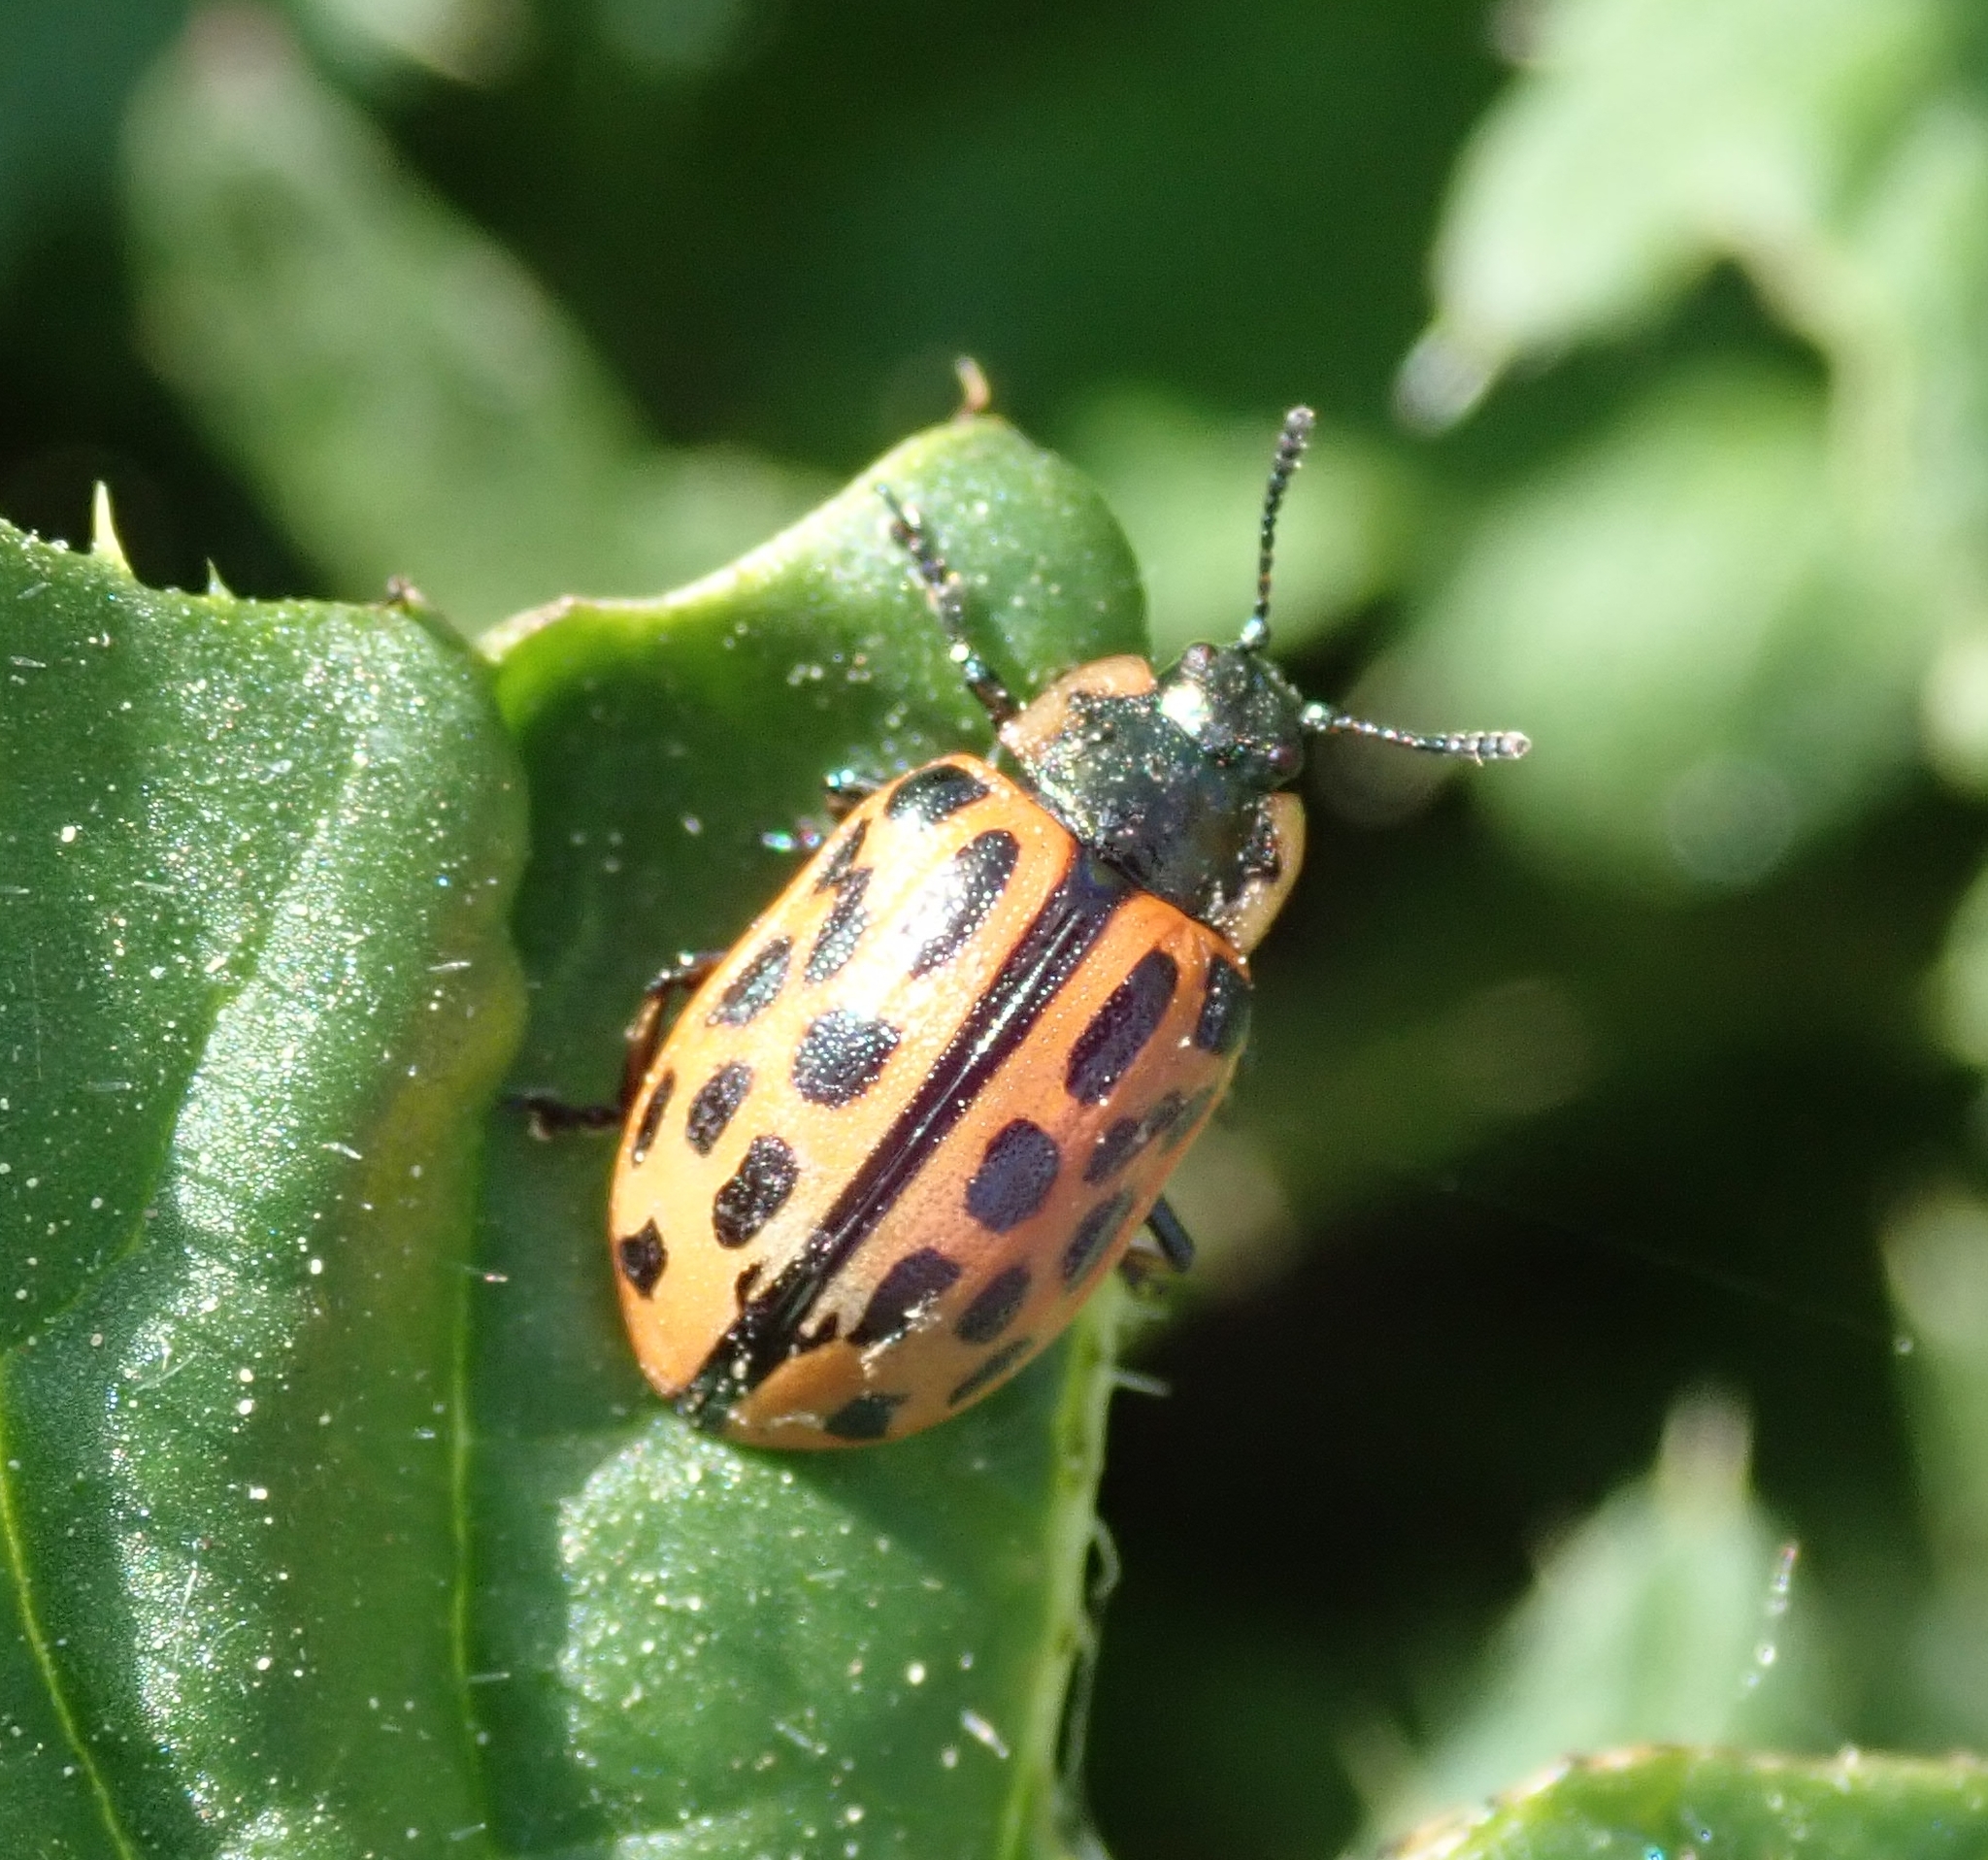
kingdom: Animalia
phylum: Arthropoda
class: Insecta
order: Coleoptera
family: Chrysomelidae
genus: Chrysomela
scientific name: Chrysomela vigintipunctata
